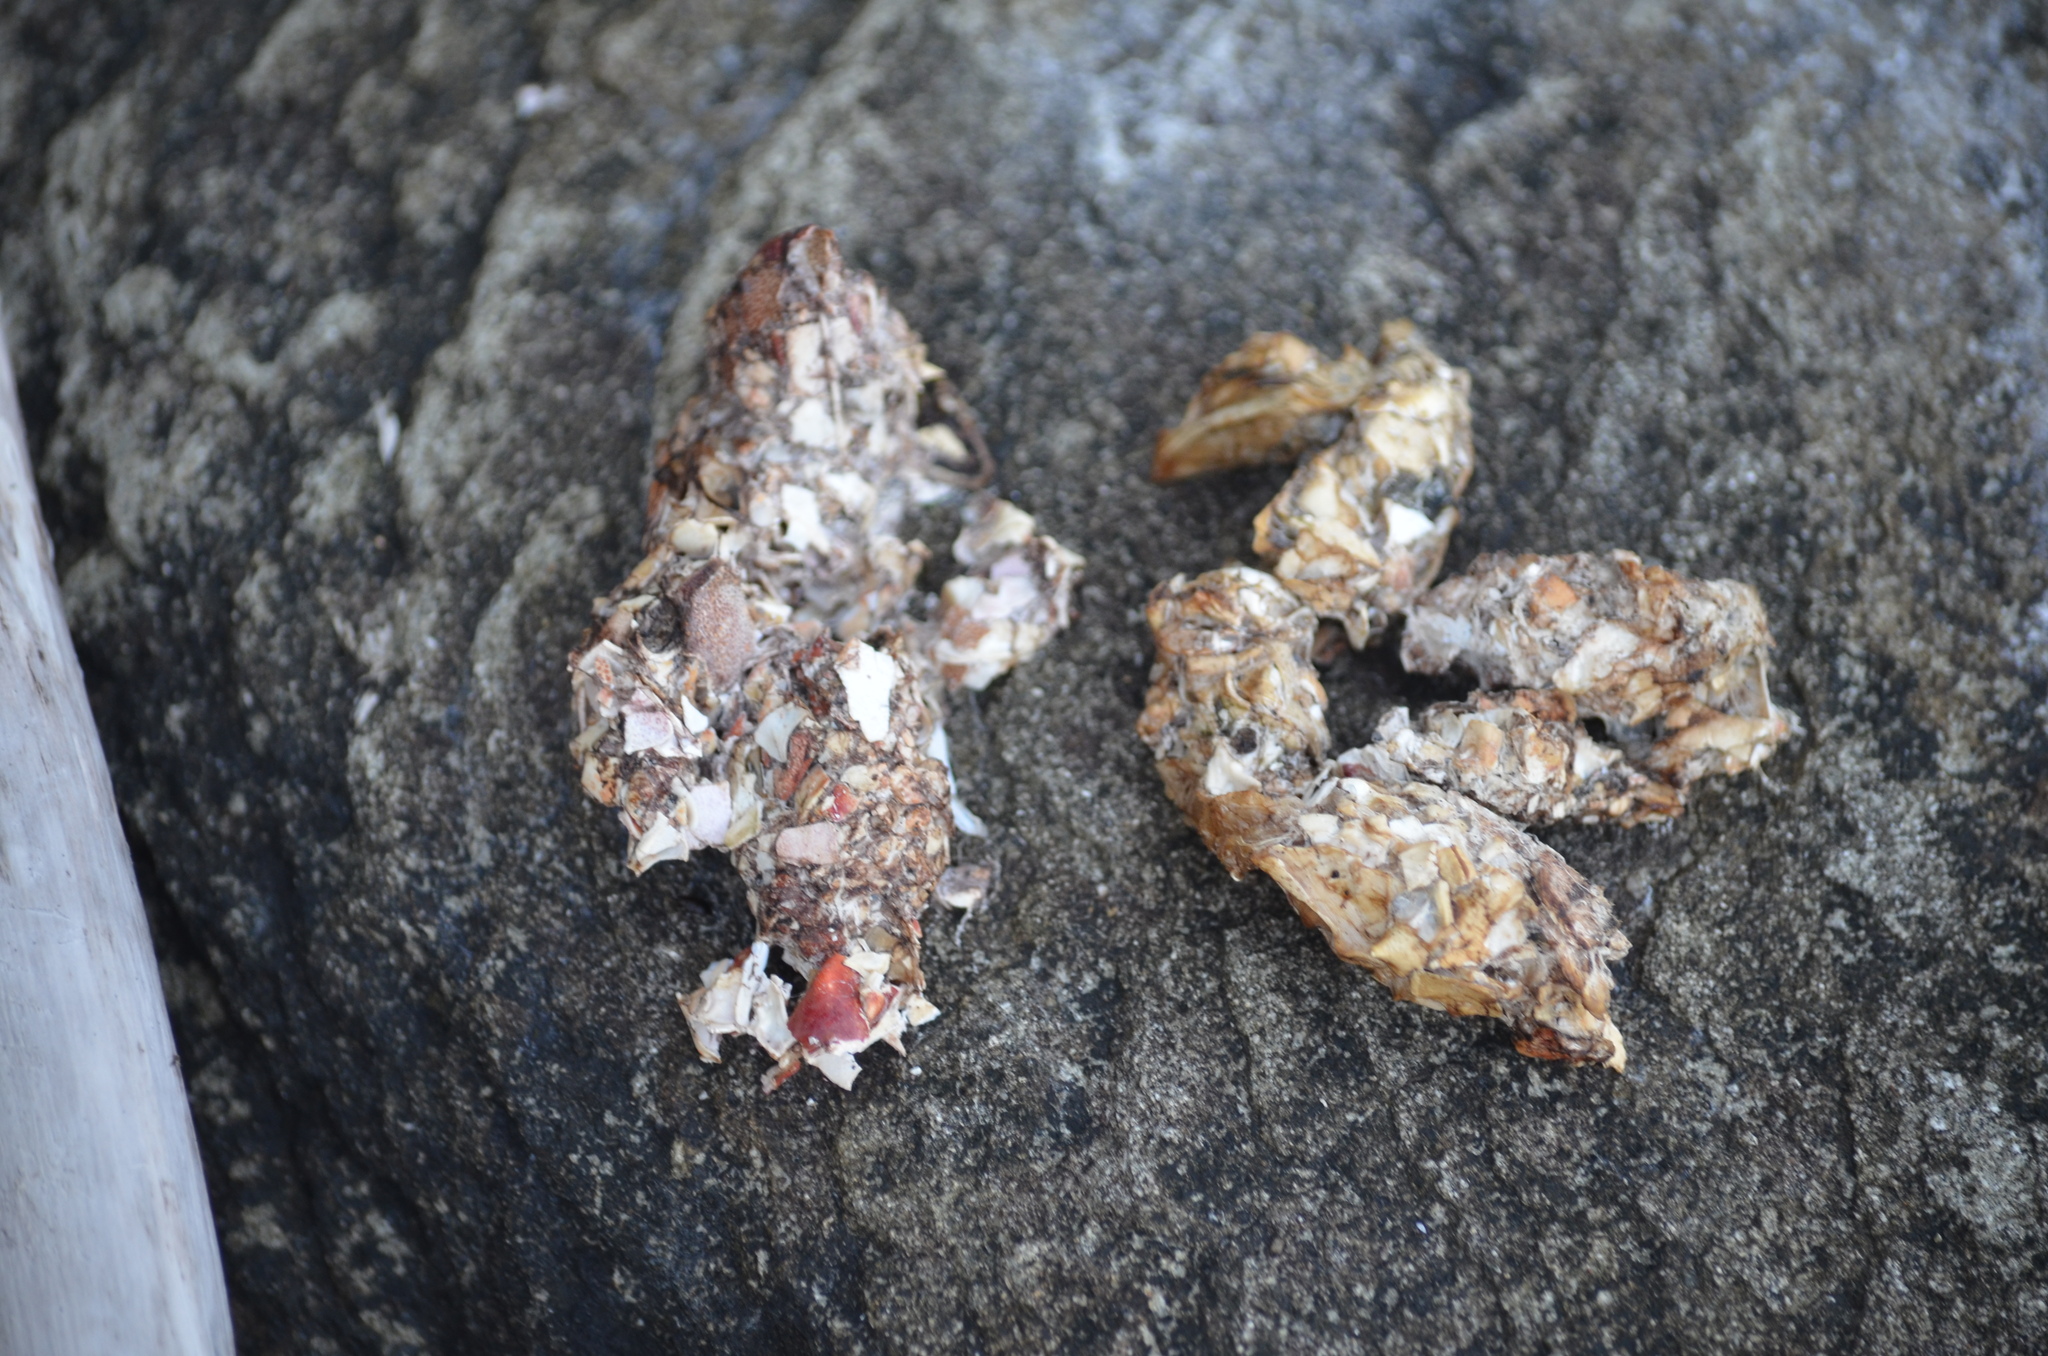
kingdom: Animalia
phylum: Chordata
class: Mammalia
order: Carnivora
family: Mustelidae
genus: Lontra
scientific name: Lontra canadensis
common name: North american river otter
